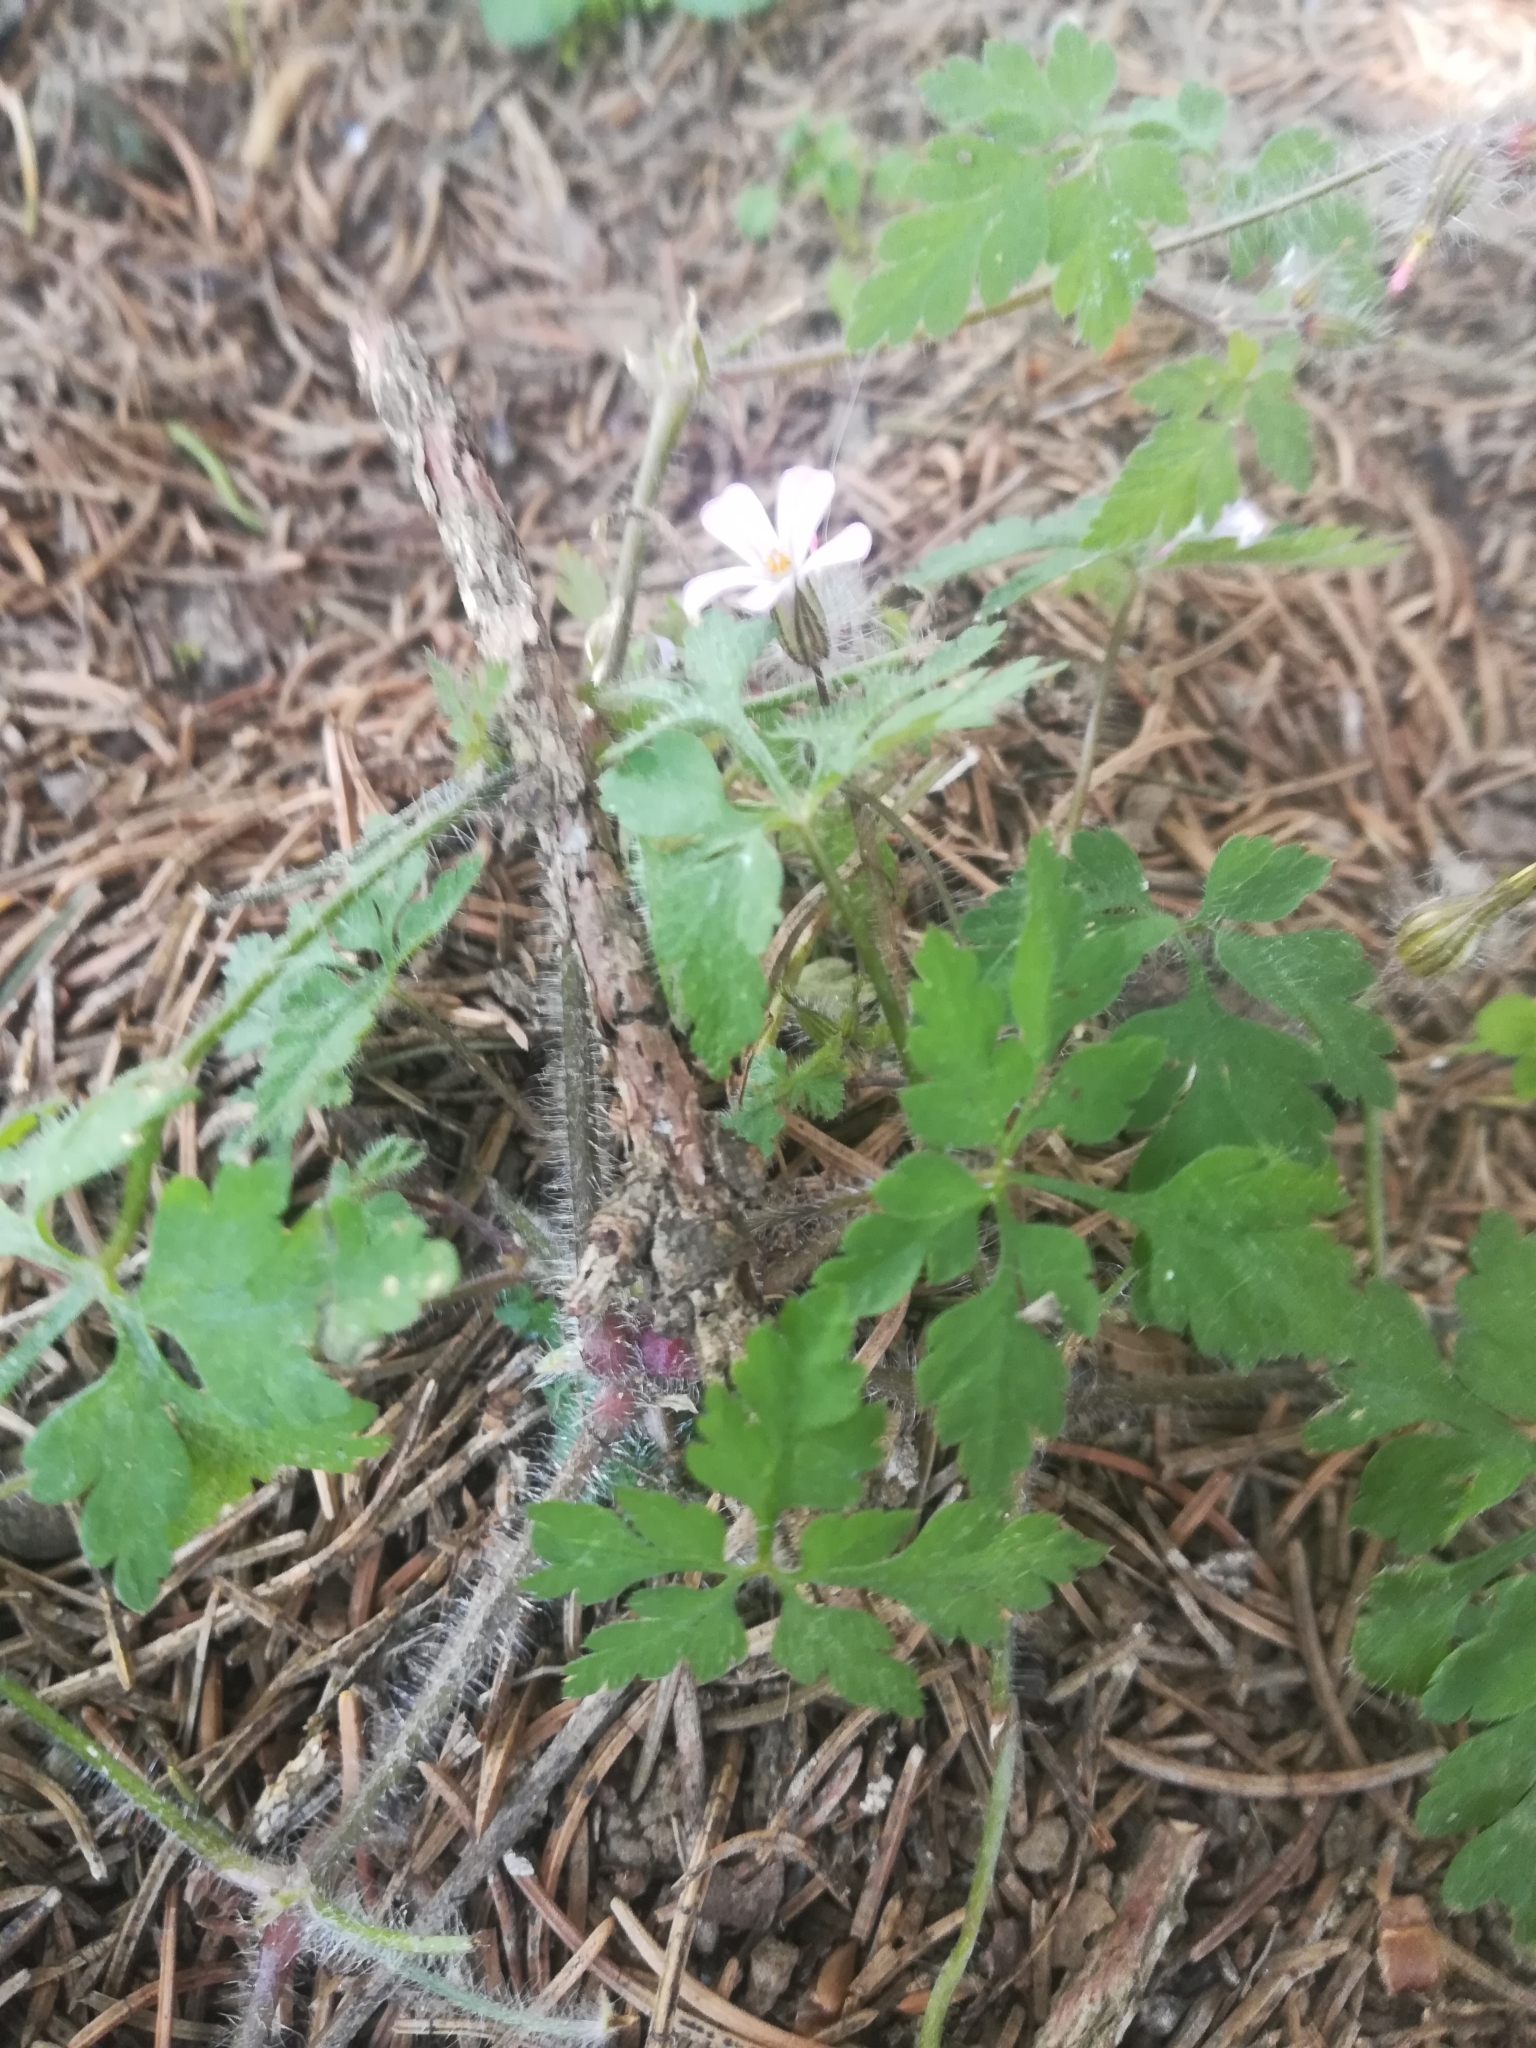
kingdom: Plantae
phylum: Tracheophyta
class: Magnoliopsida
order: Geraniales
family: Geraniaceae
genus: Geranium
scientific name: Geranium robertianum
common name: Herb-robert
